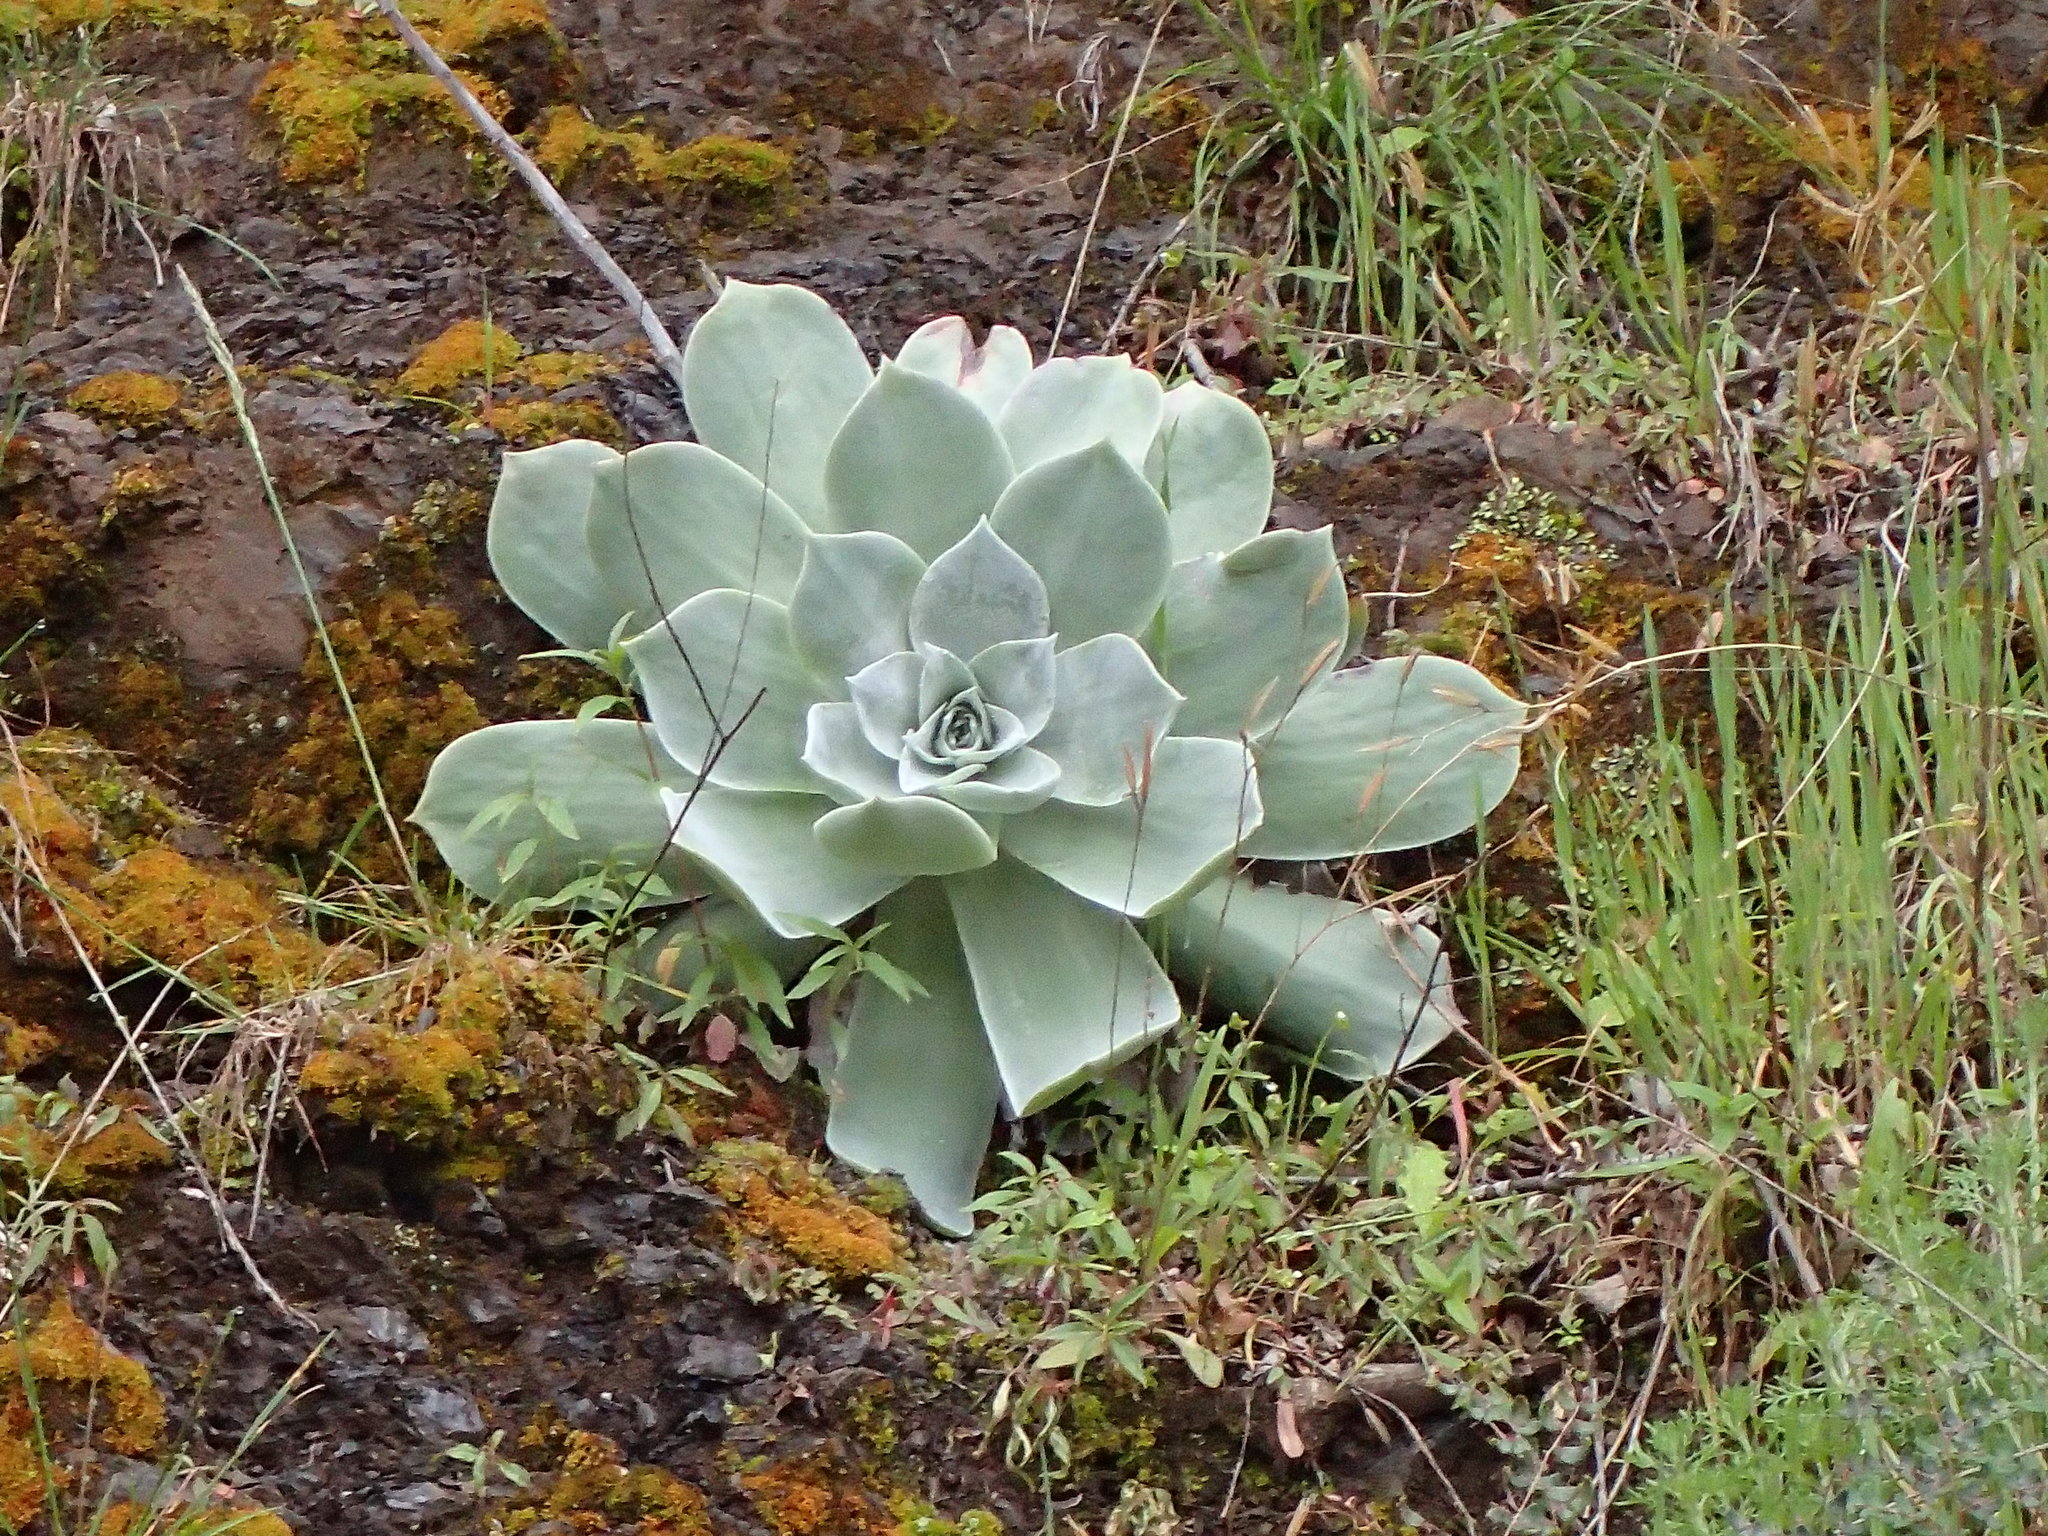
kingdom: Plantae
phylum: Tracheophyta
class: Magnoliopsida
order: Saxifragales
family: Crassulaceae
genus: Dudleya
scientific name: Dudleya pulverulenta
